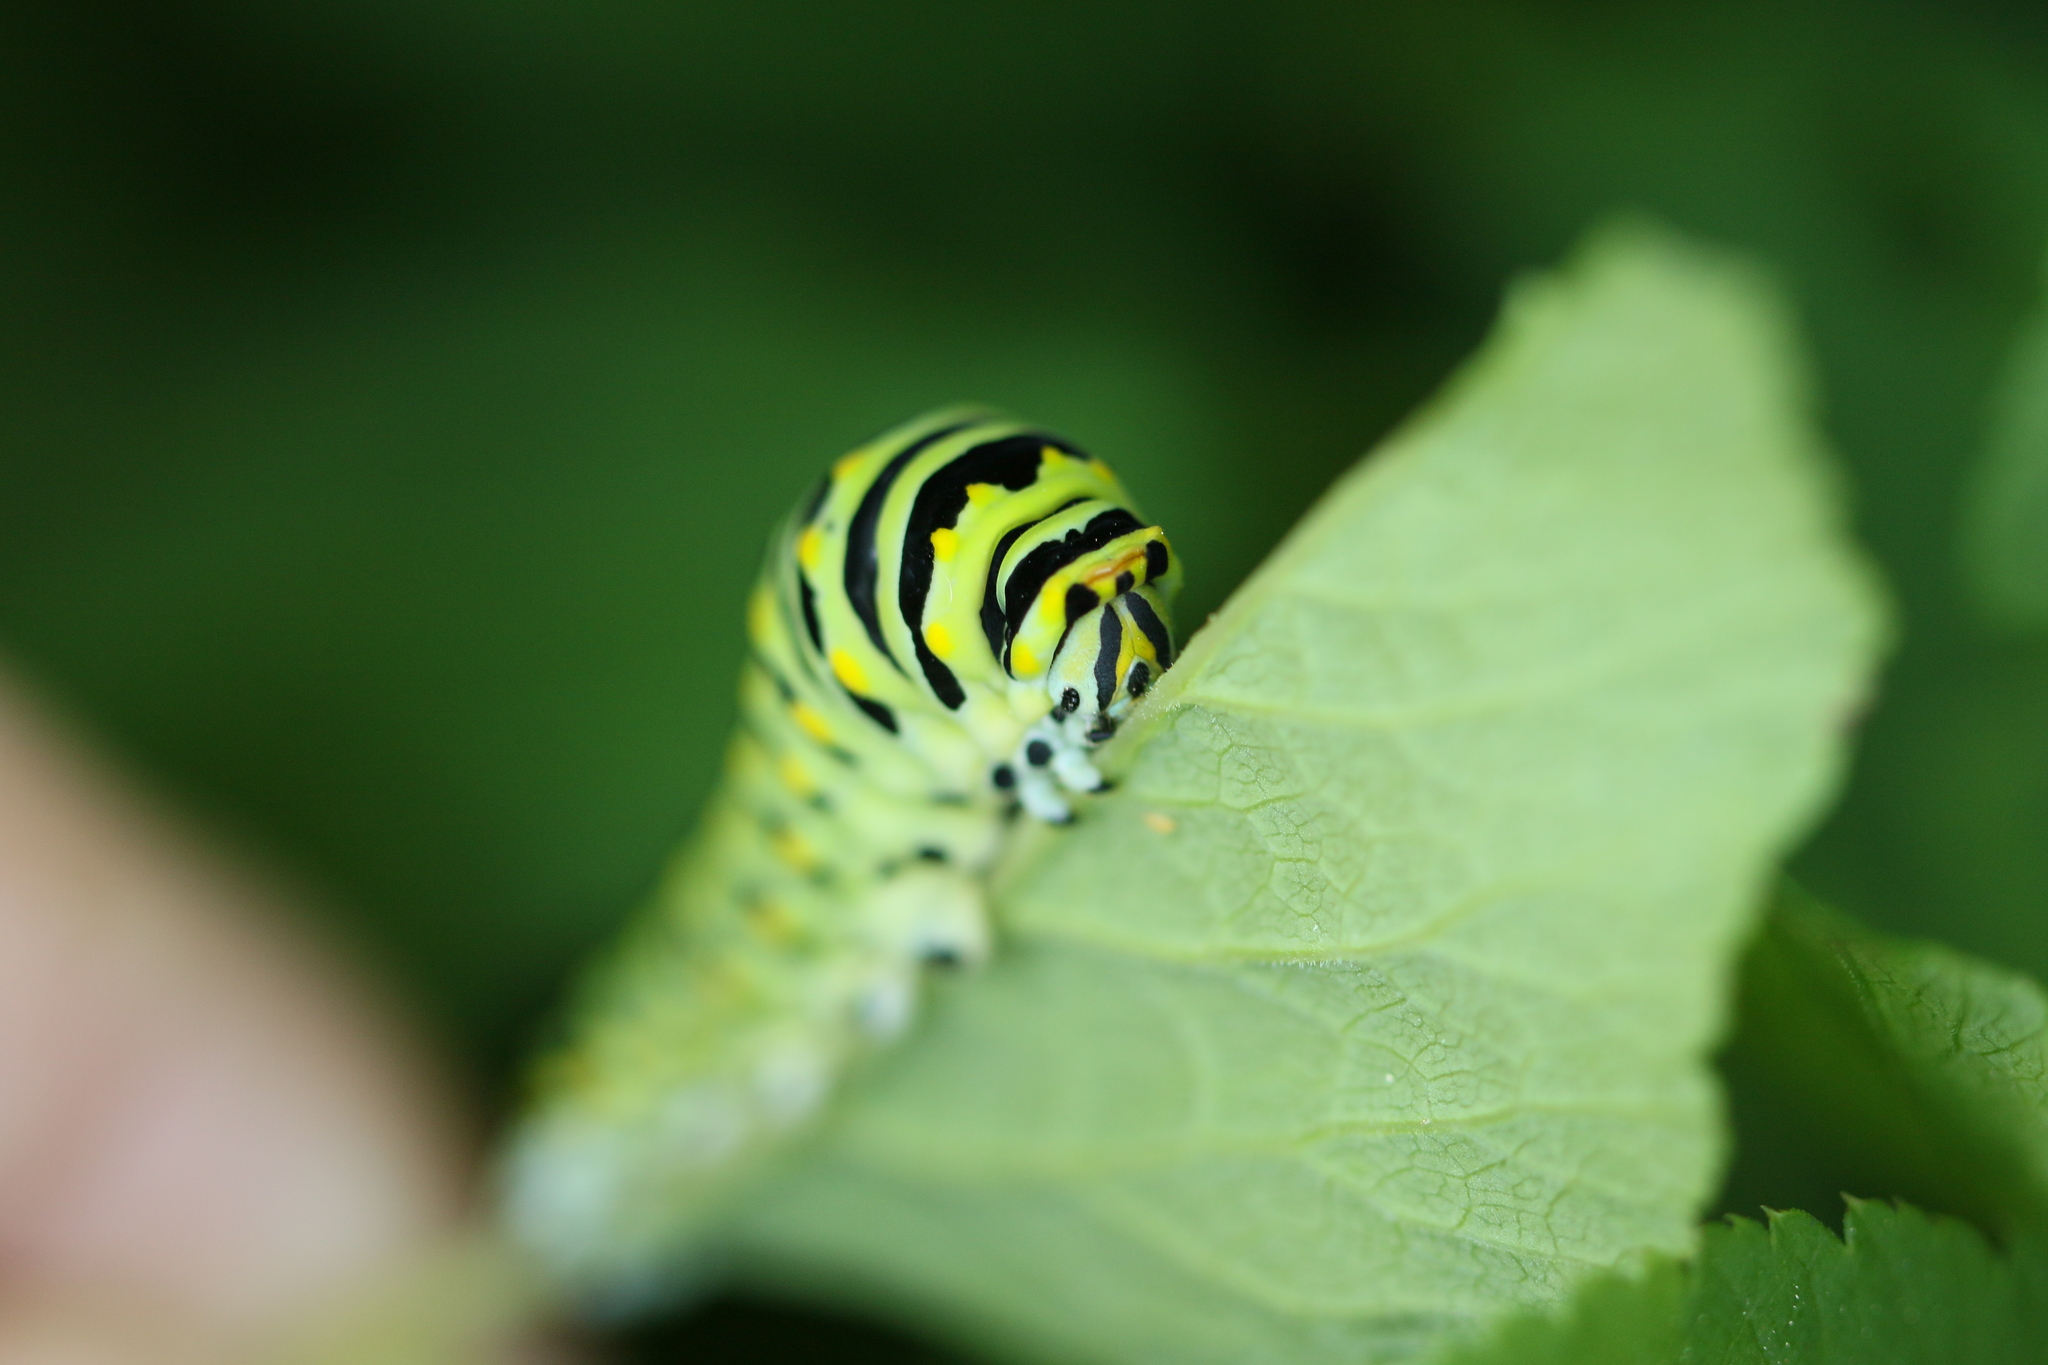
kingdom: Animalia
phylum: Arthropoda
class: Insecta
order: Lepidoptera
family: Papilionidae
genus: Papilio
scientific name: Papilio polyxenes
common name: Black swallowtail
